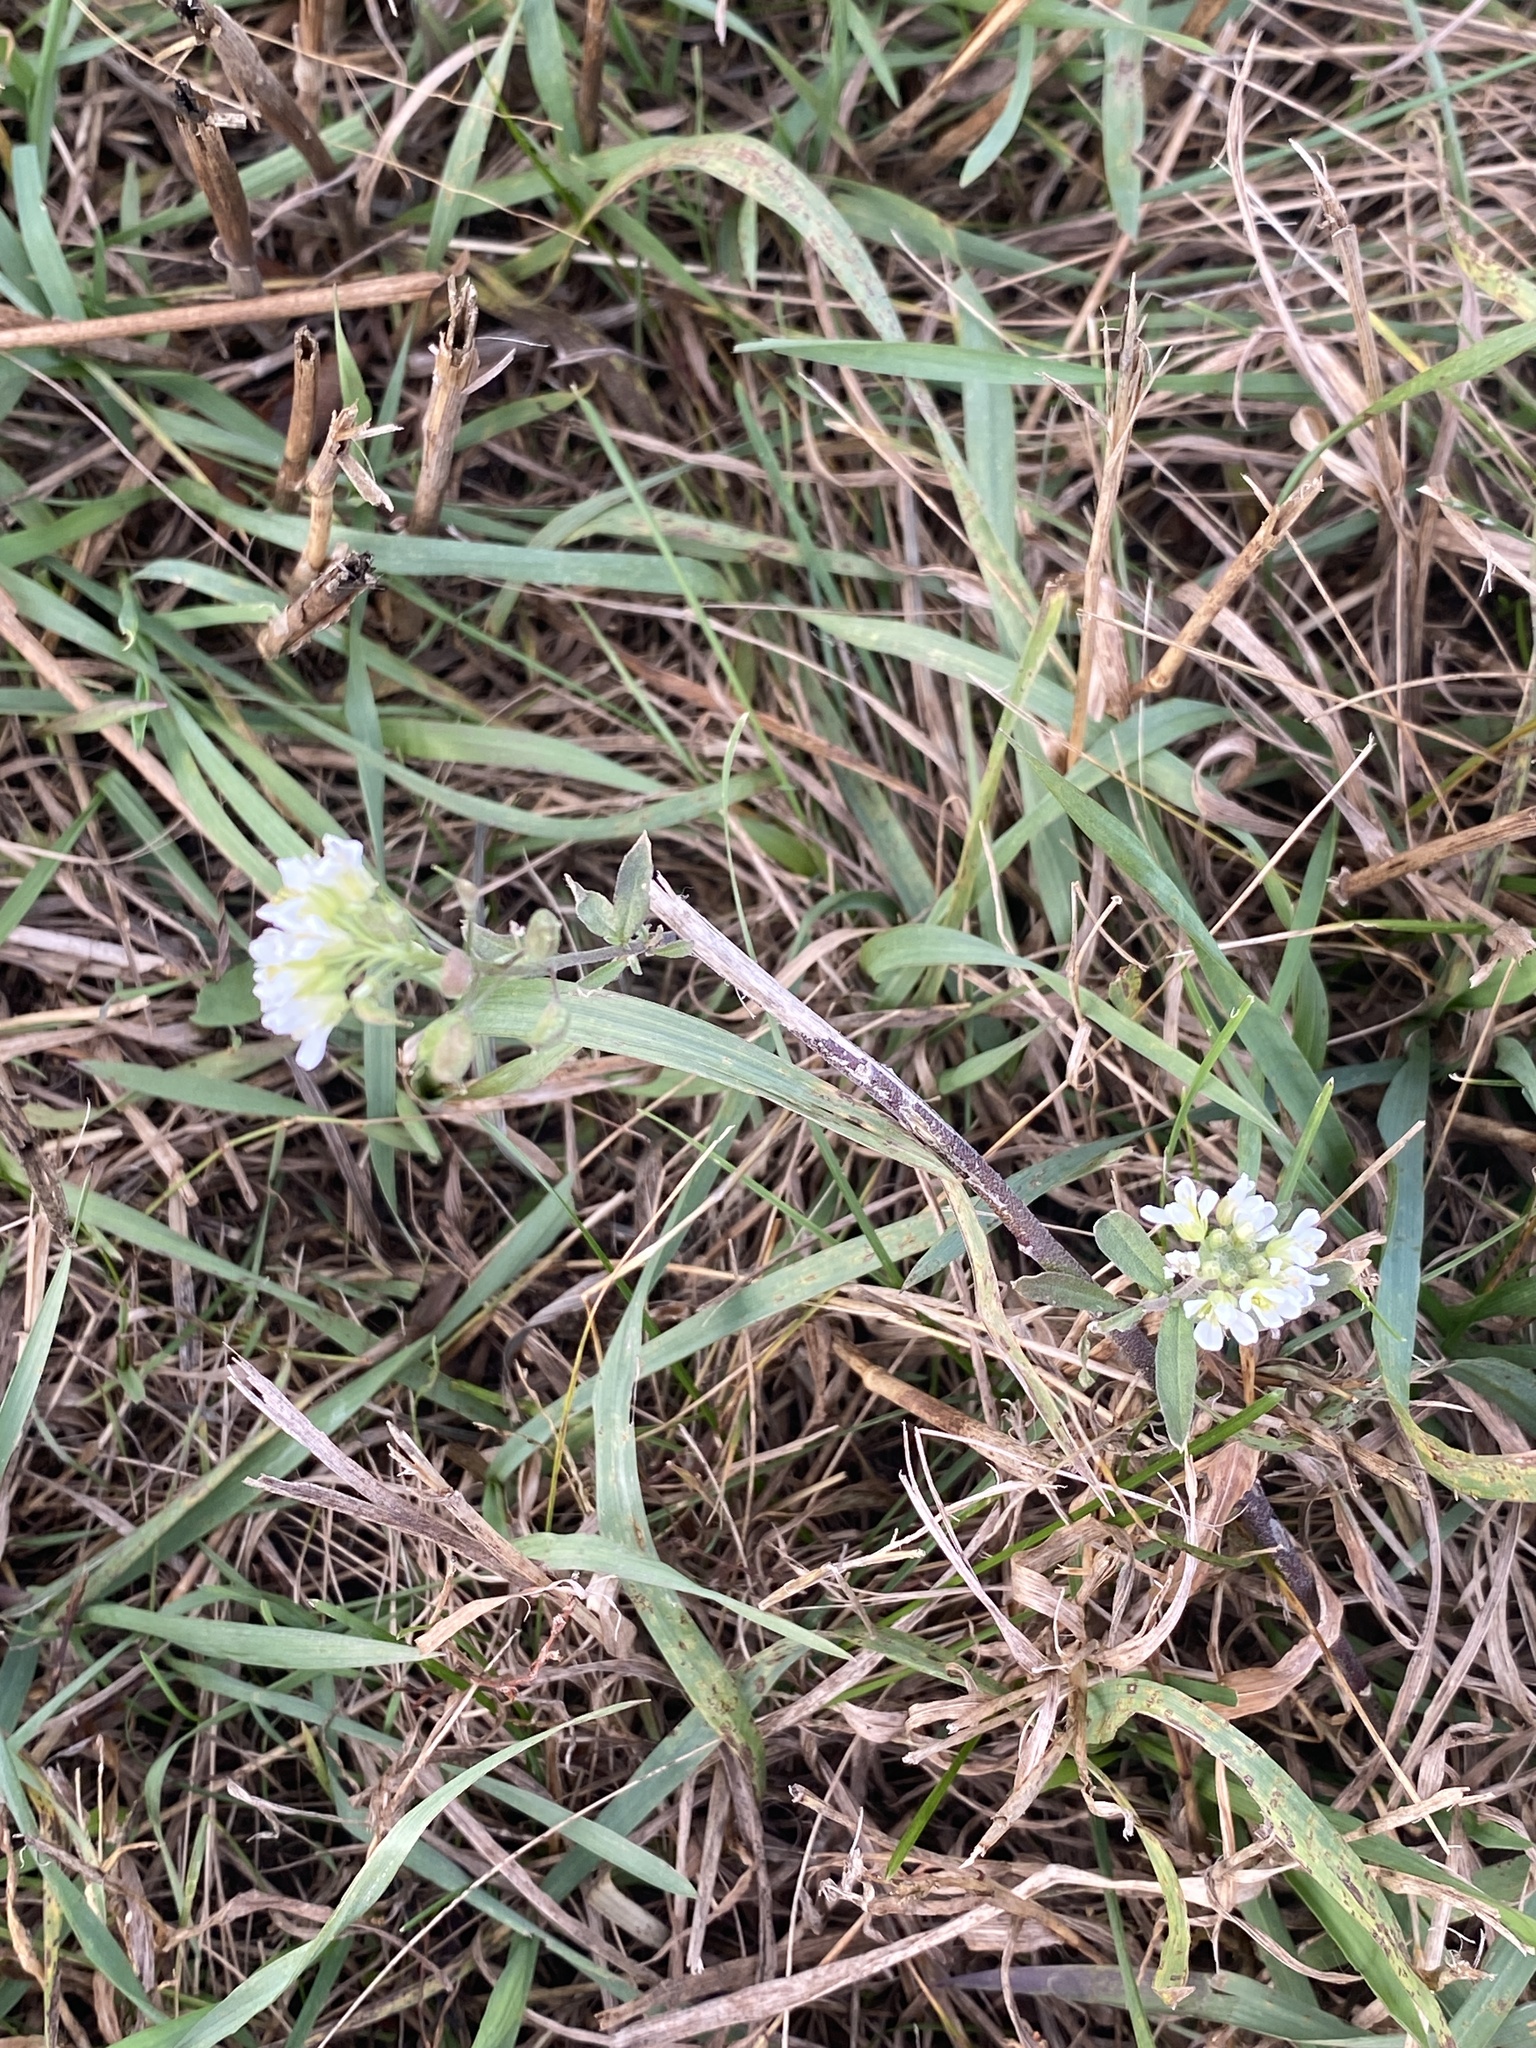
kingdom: Plantae
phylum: Tracheophyta
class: Magnoliopsida
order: Brassicales
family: Brassicaceae
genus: Berteroa
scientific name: Berteroa incana
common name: Hoary alison
